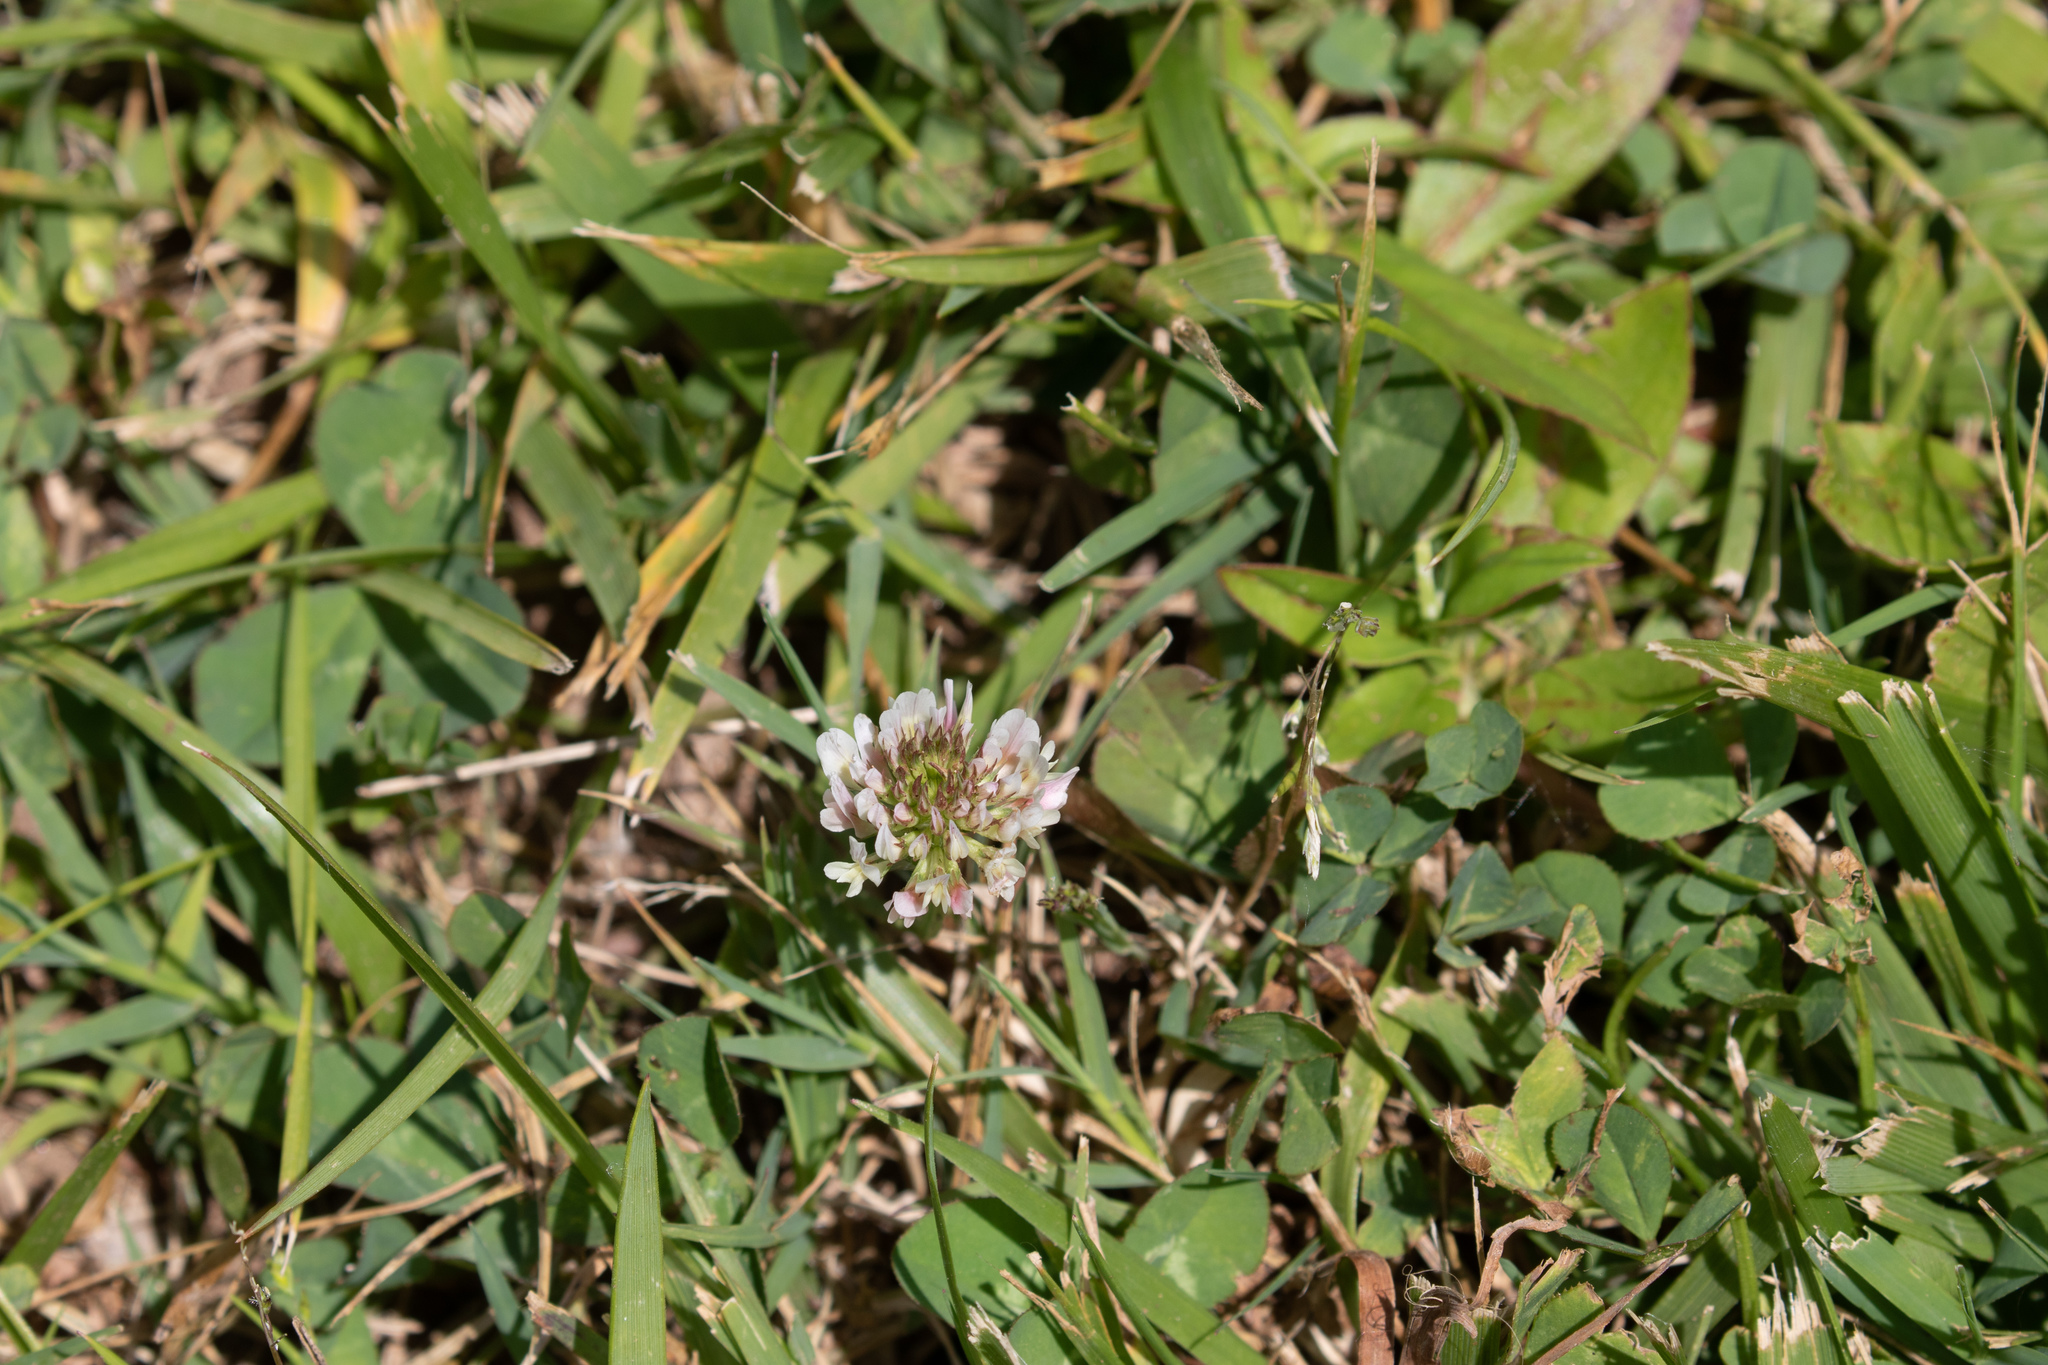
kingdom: Plantae
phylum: Tracheophyta
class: Magnoliopsida
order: Fabales
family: Fabaceae
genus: Trifolium
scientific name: Trifolium repens
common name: White clover
